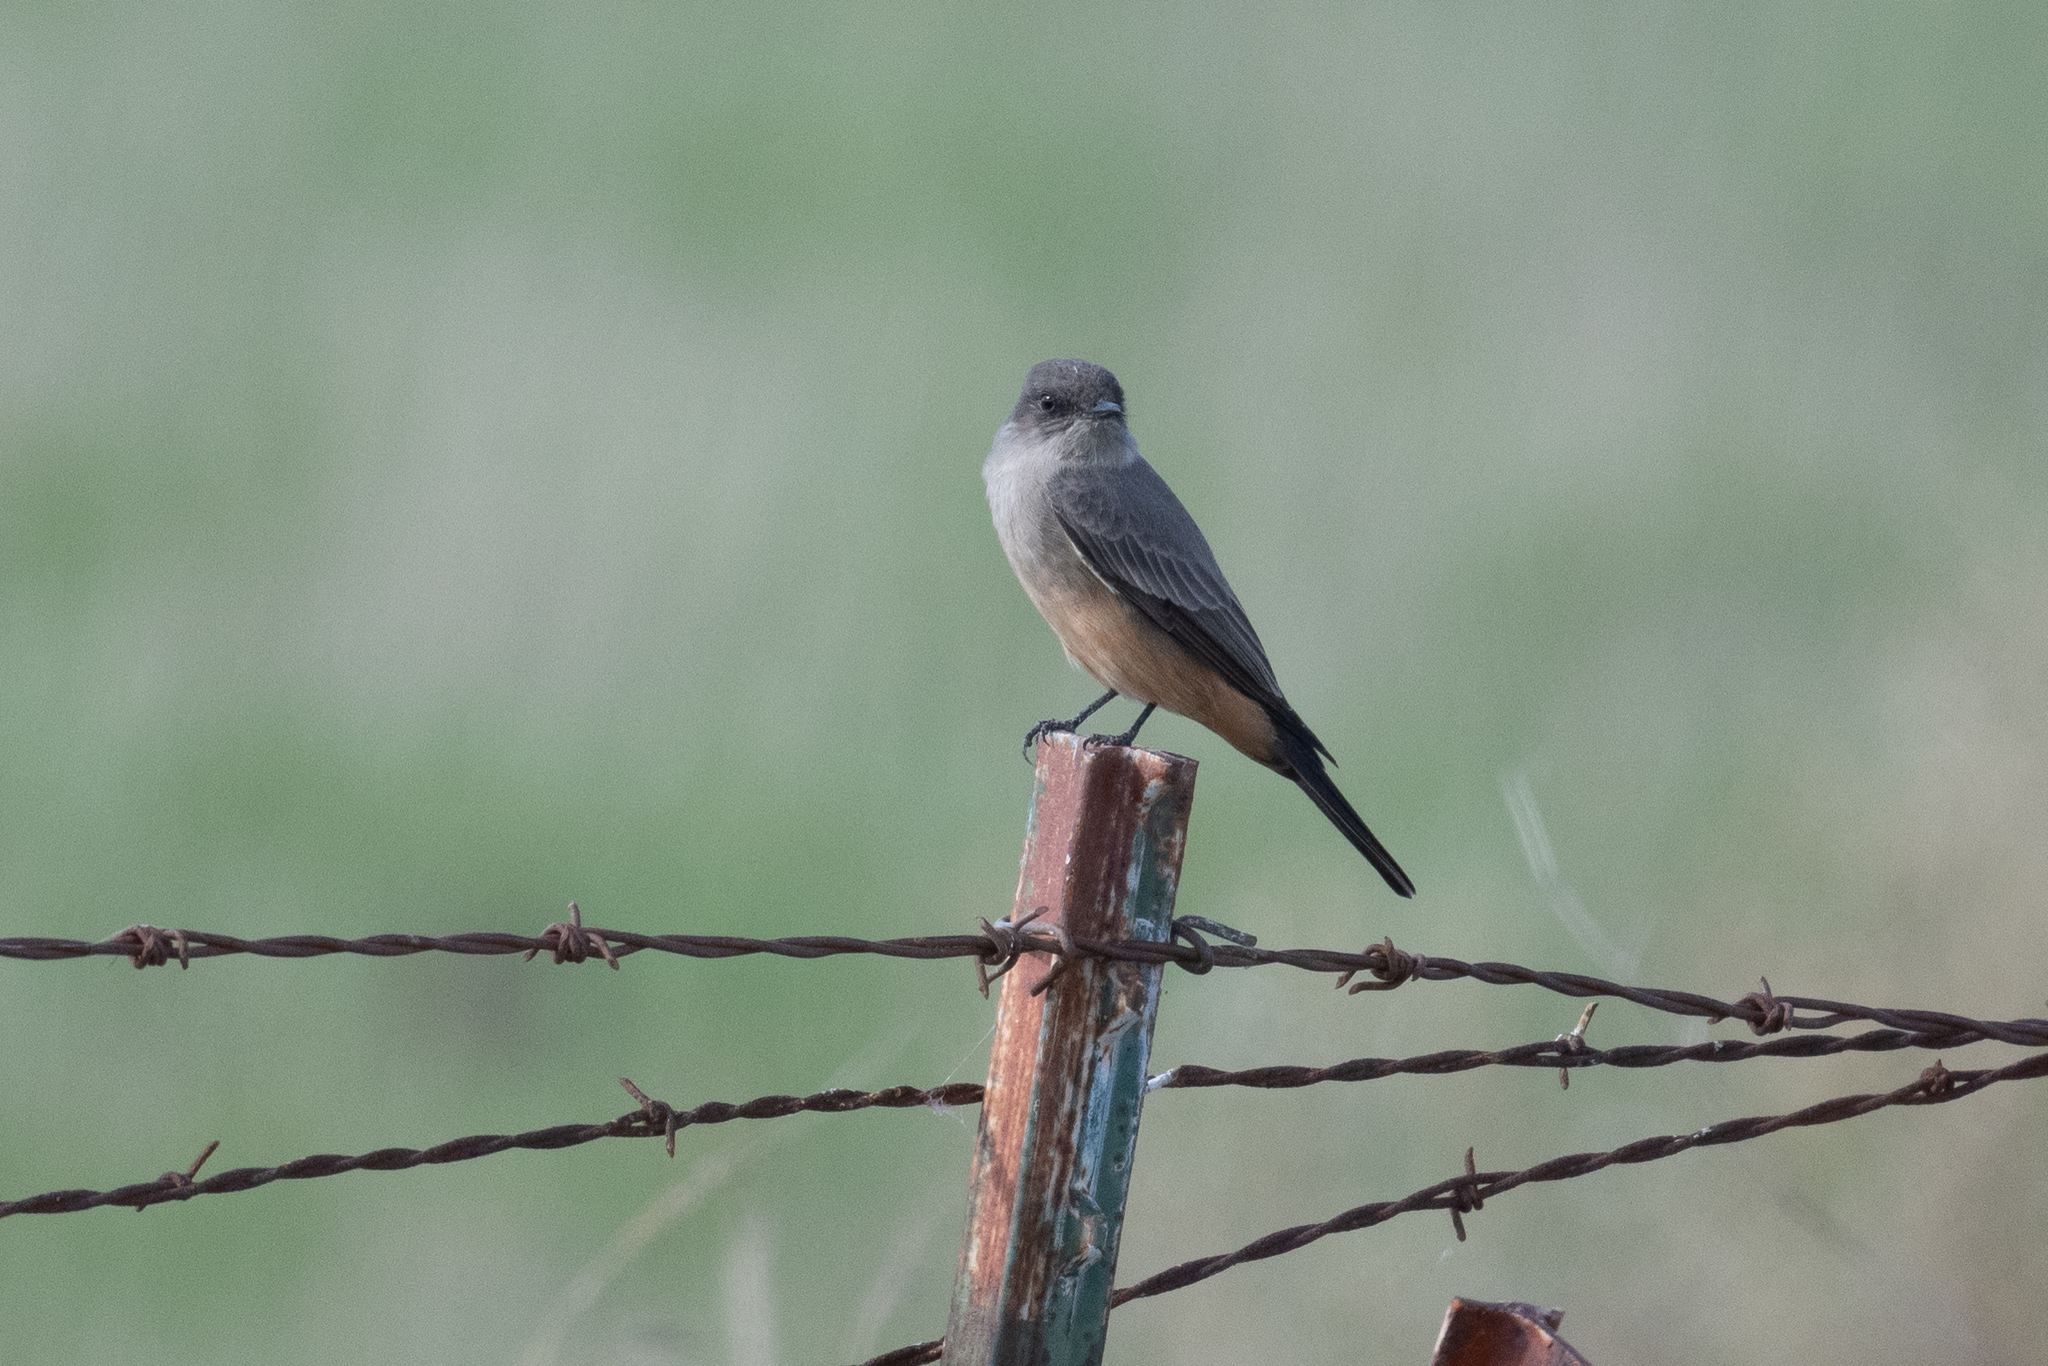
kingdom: Animalia
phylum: Chordata
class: Aves
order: Passeriformes
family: Tyrannidae
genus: Sayornis
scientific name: Sayornis saya
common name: Say's phoebe
